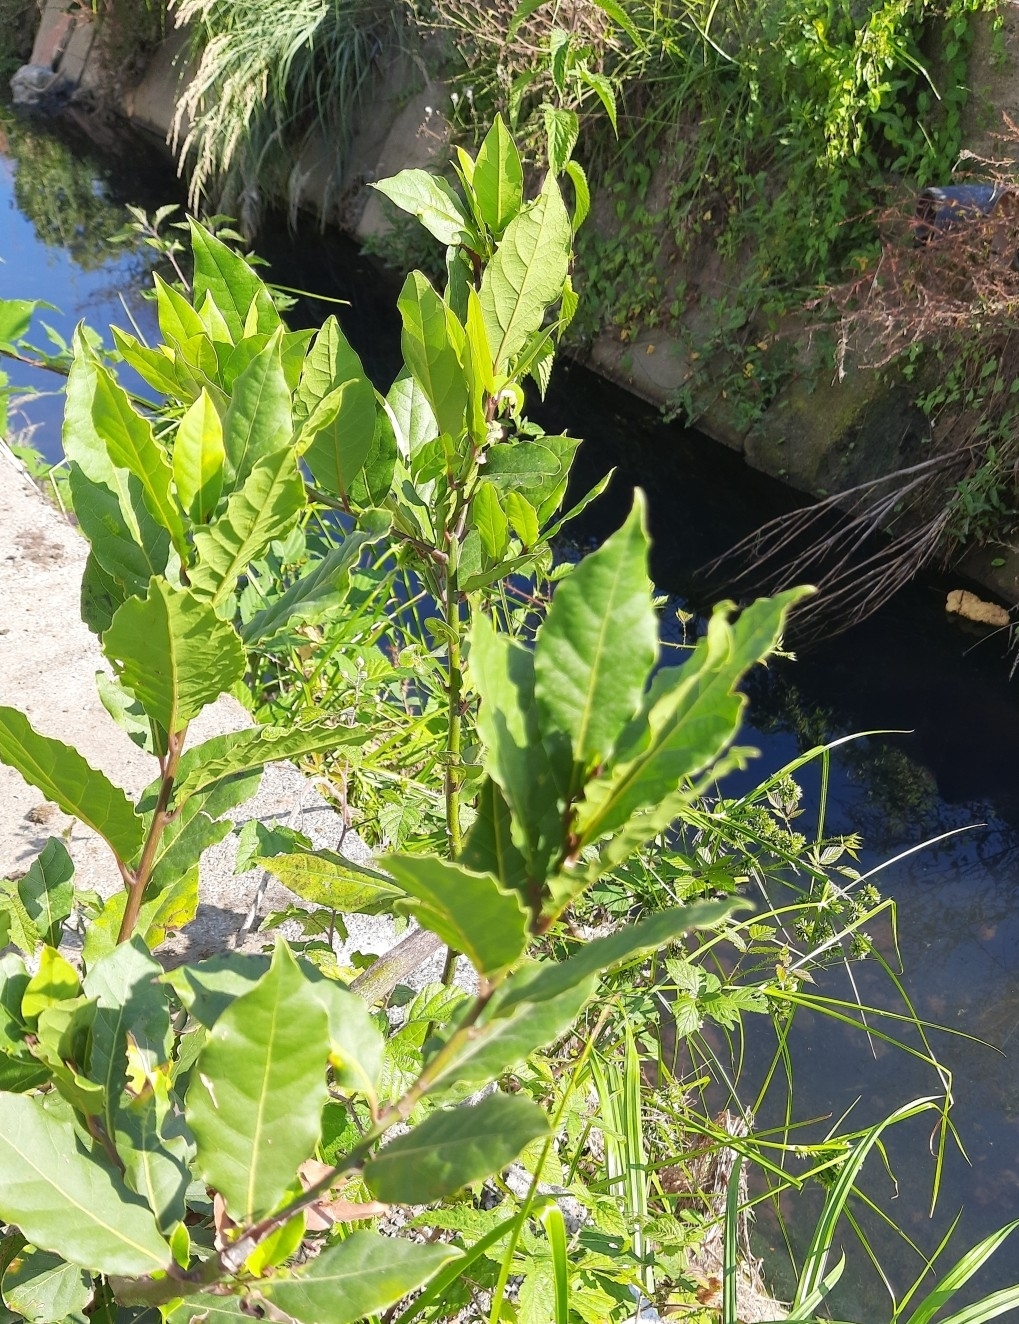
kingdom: Plantae
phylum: Tracheophyta
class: Magnoliopsida
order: Laurales
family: Lauraceae
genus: Laurus
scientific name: Laurus nobilis
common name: Bay
